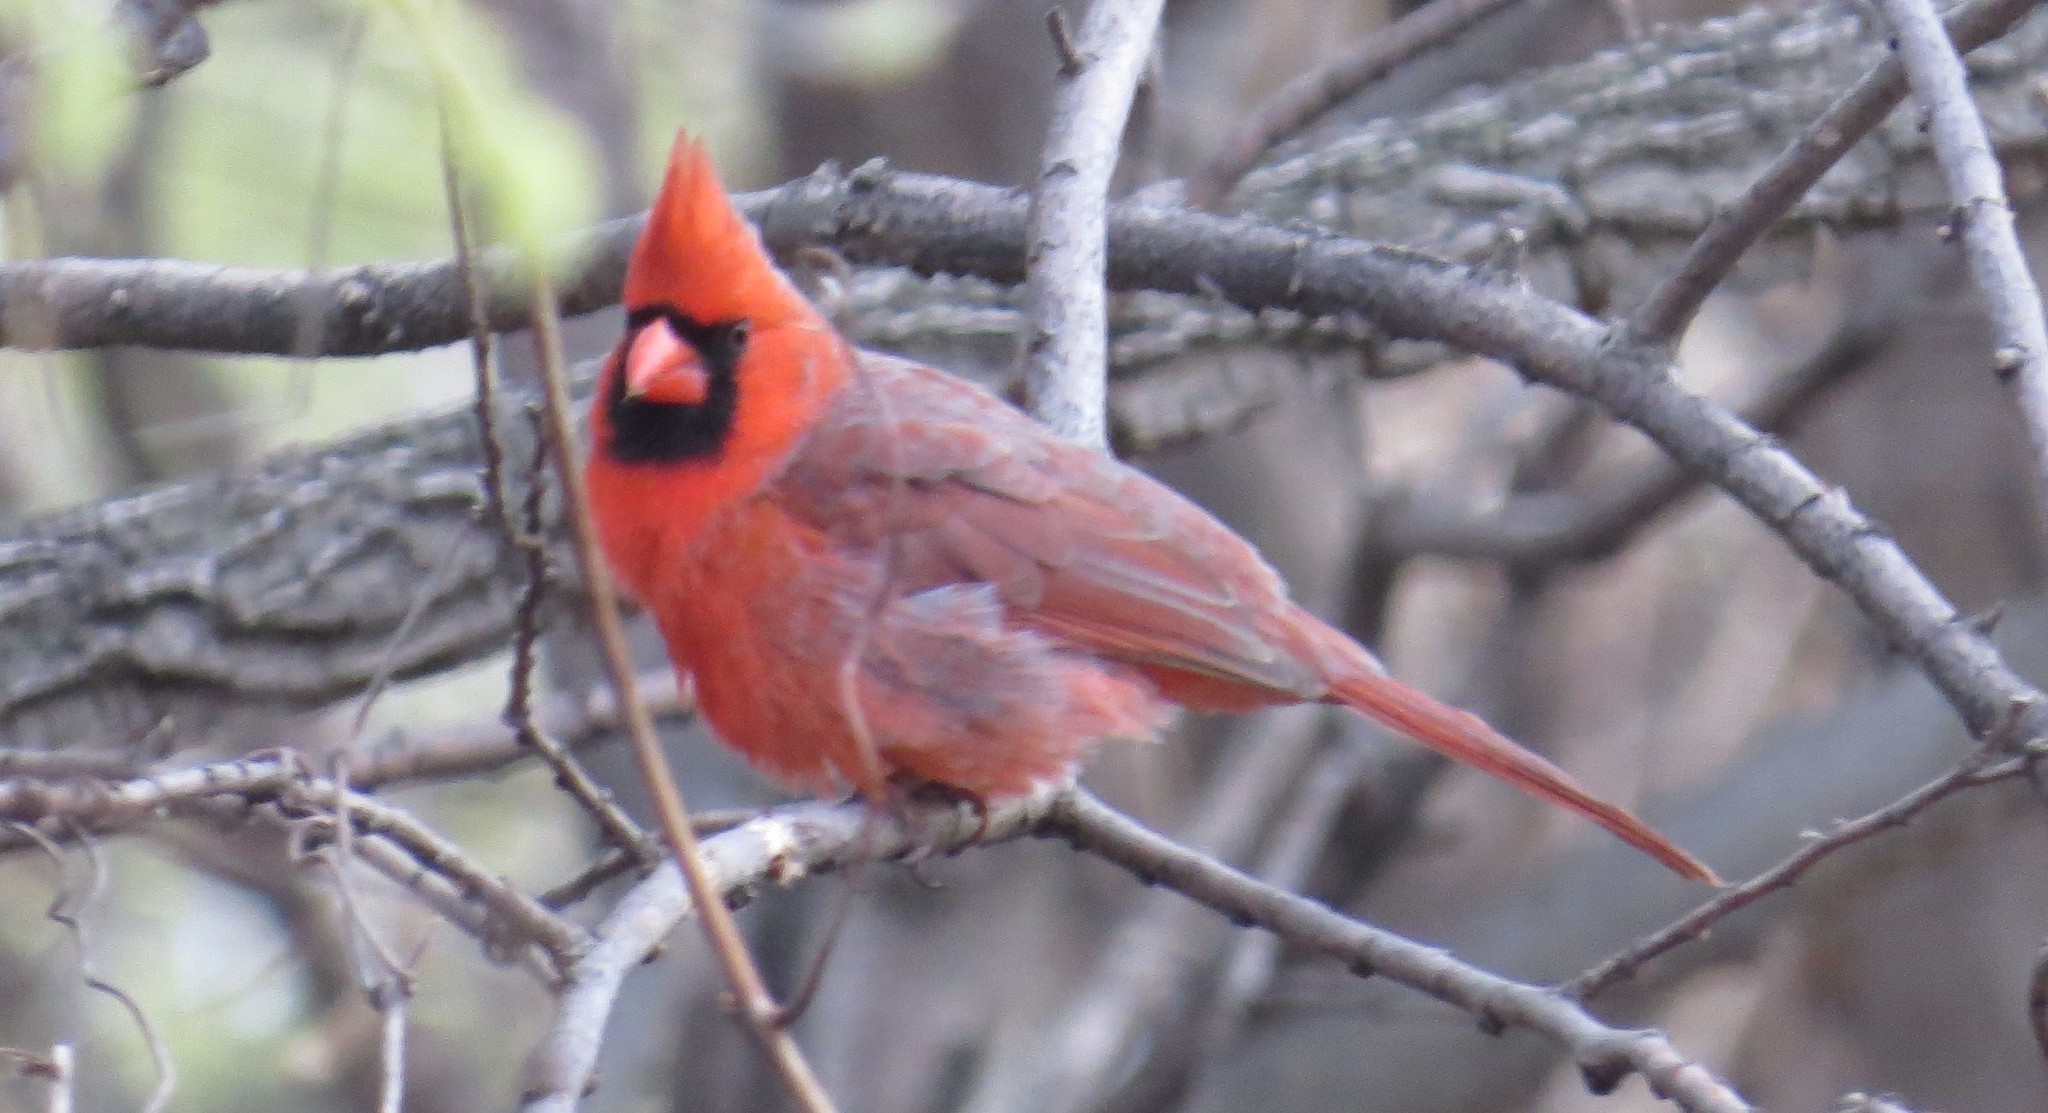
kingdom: Animalia
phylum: Chordata
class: Aves
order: Passeriformes
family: Cardinalidae
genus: Cardinalis
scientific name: Cardinalis cardinalis
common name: Northern cardinal
